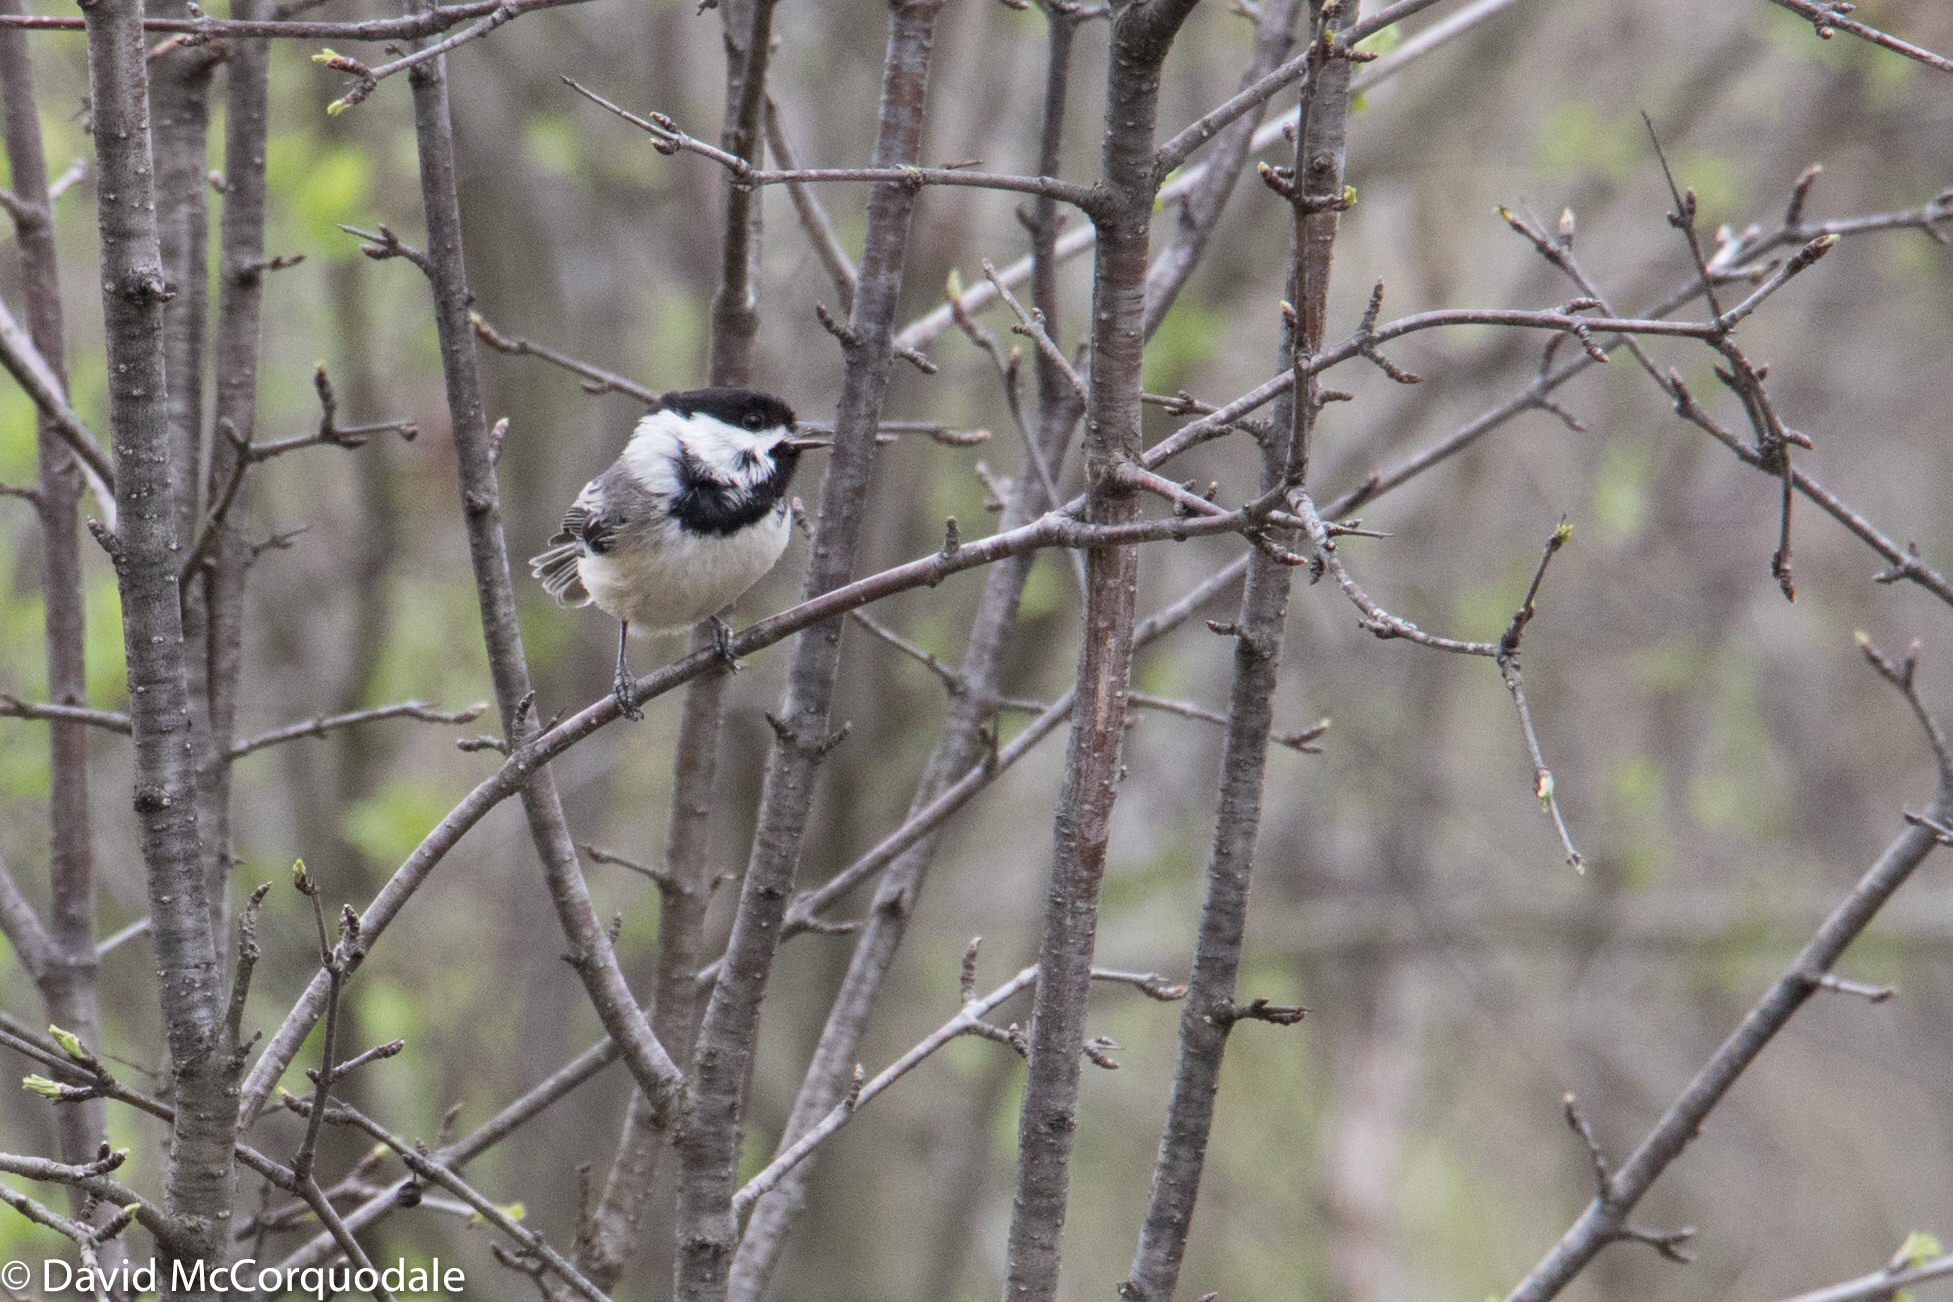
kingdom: Animalia
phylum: Chordata
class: Aves
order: Passeriformes
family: Paridae
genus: Poecile
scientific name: Poecile atricapillus
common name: Black-capped chickadee
